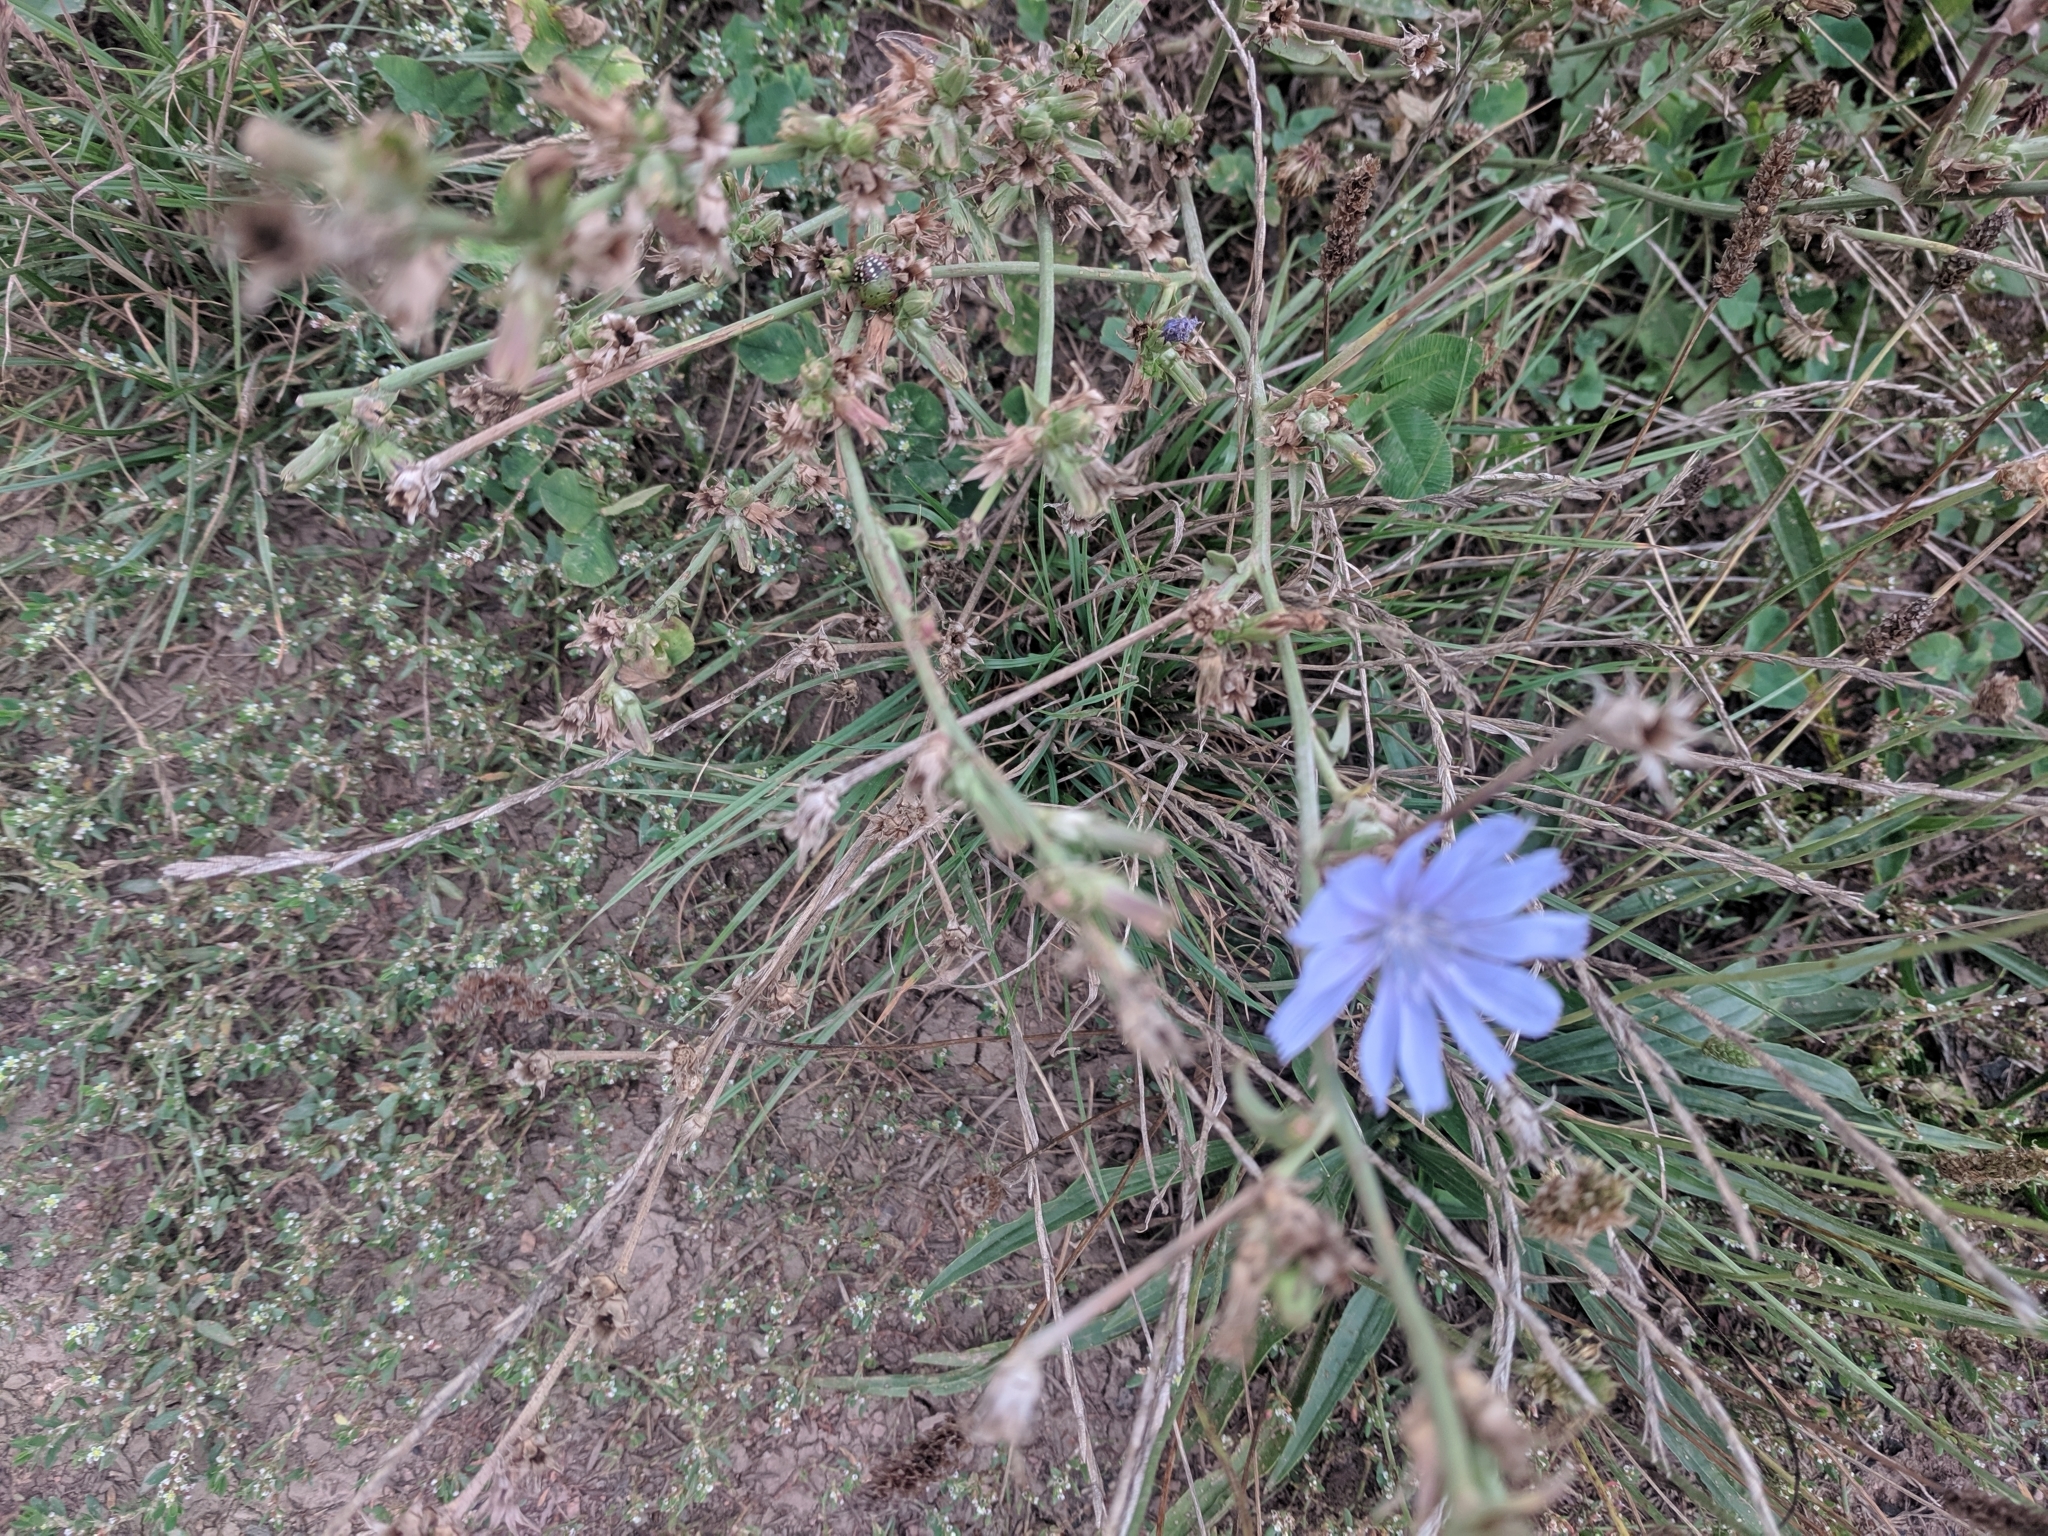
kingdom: Plantae
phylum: Tracheophyta
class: Magnoliopsida
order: Asterales
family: Asteraceae
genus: Cichorium
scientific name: Cichorium intybus
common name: Chicory
